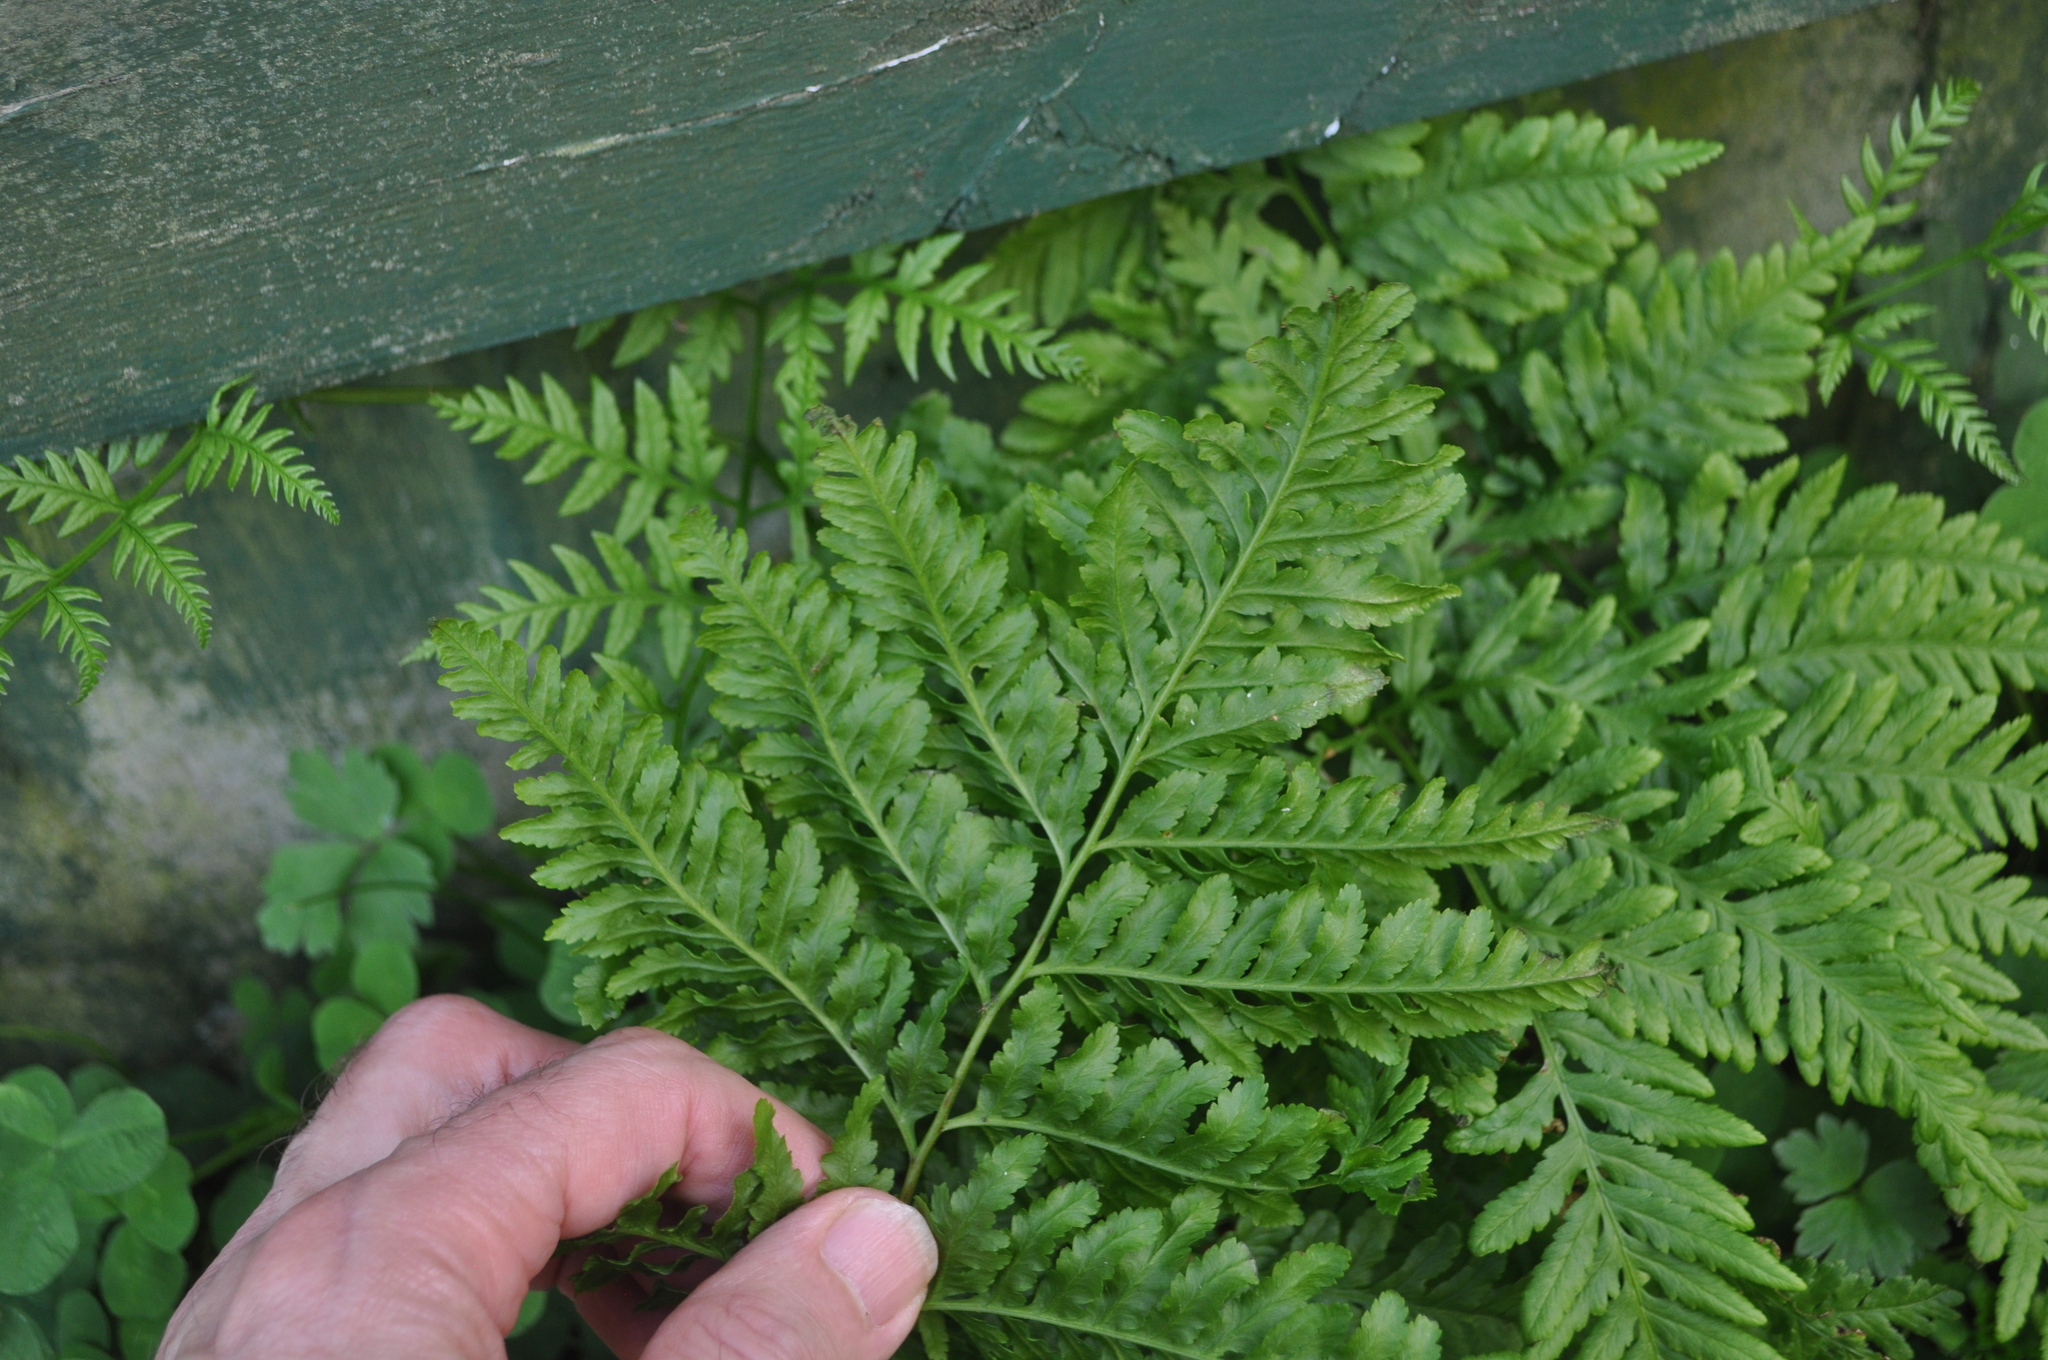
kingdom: Plantae
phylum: Tracheophyta
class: Polypodiopsida
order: Polypodiales
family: Pteridaceae
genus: Pteris
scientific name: Pteris tremula
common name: Australian brake
